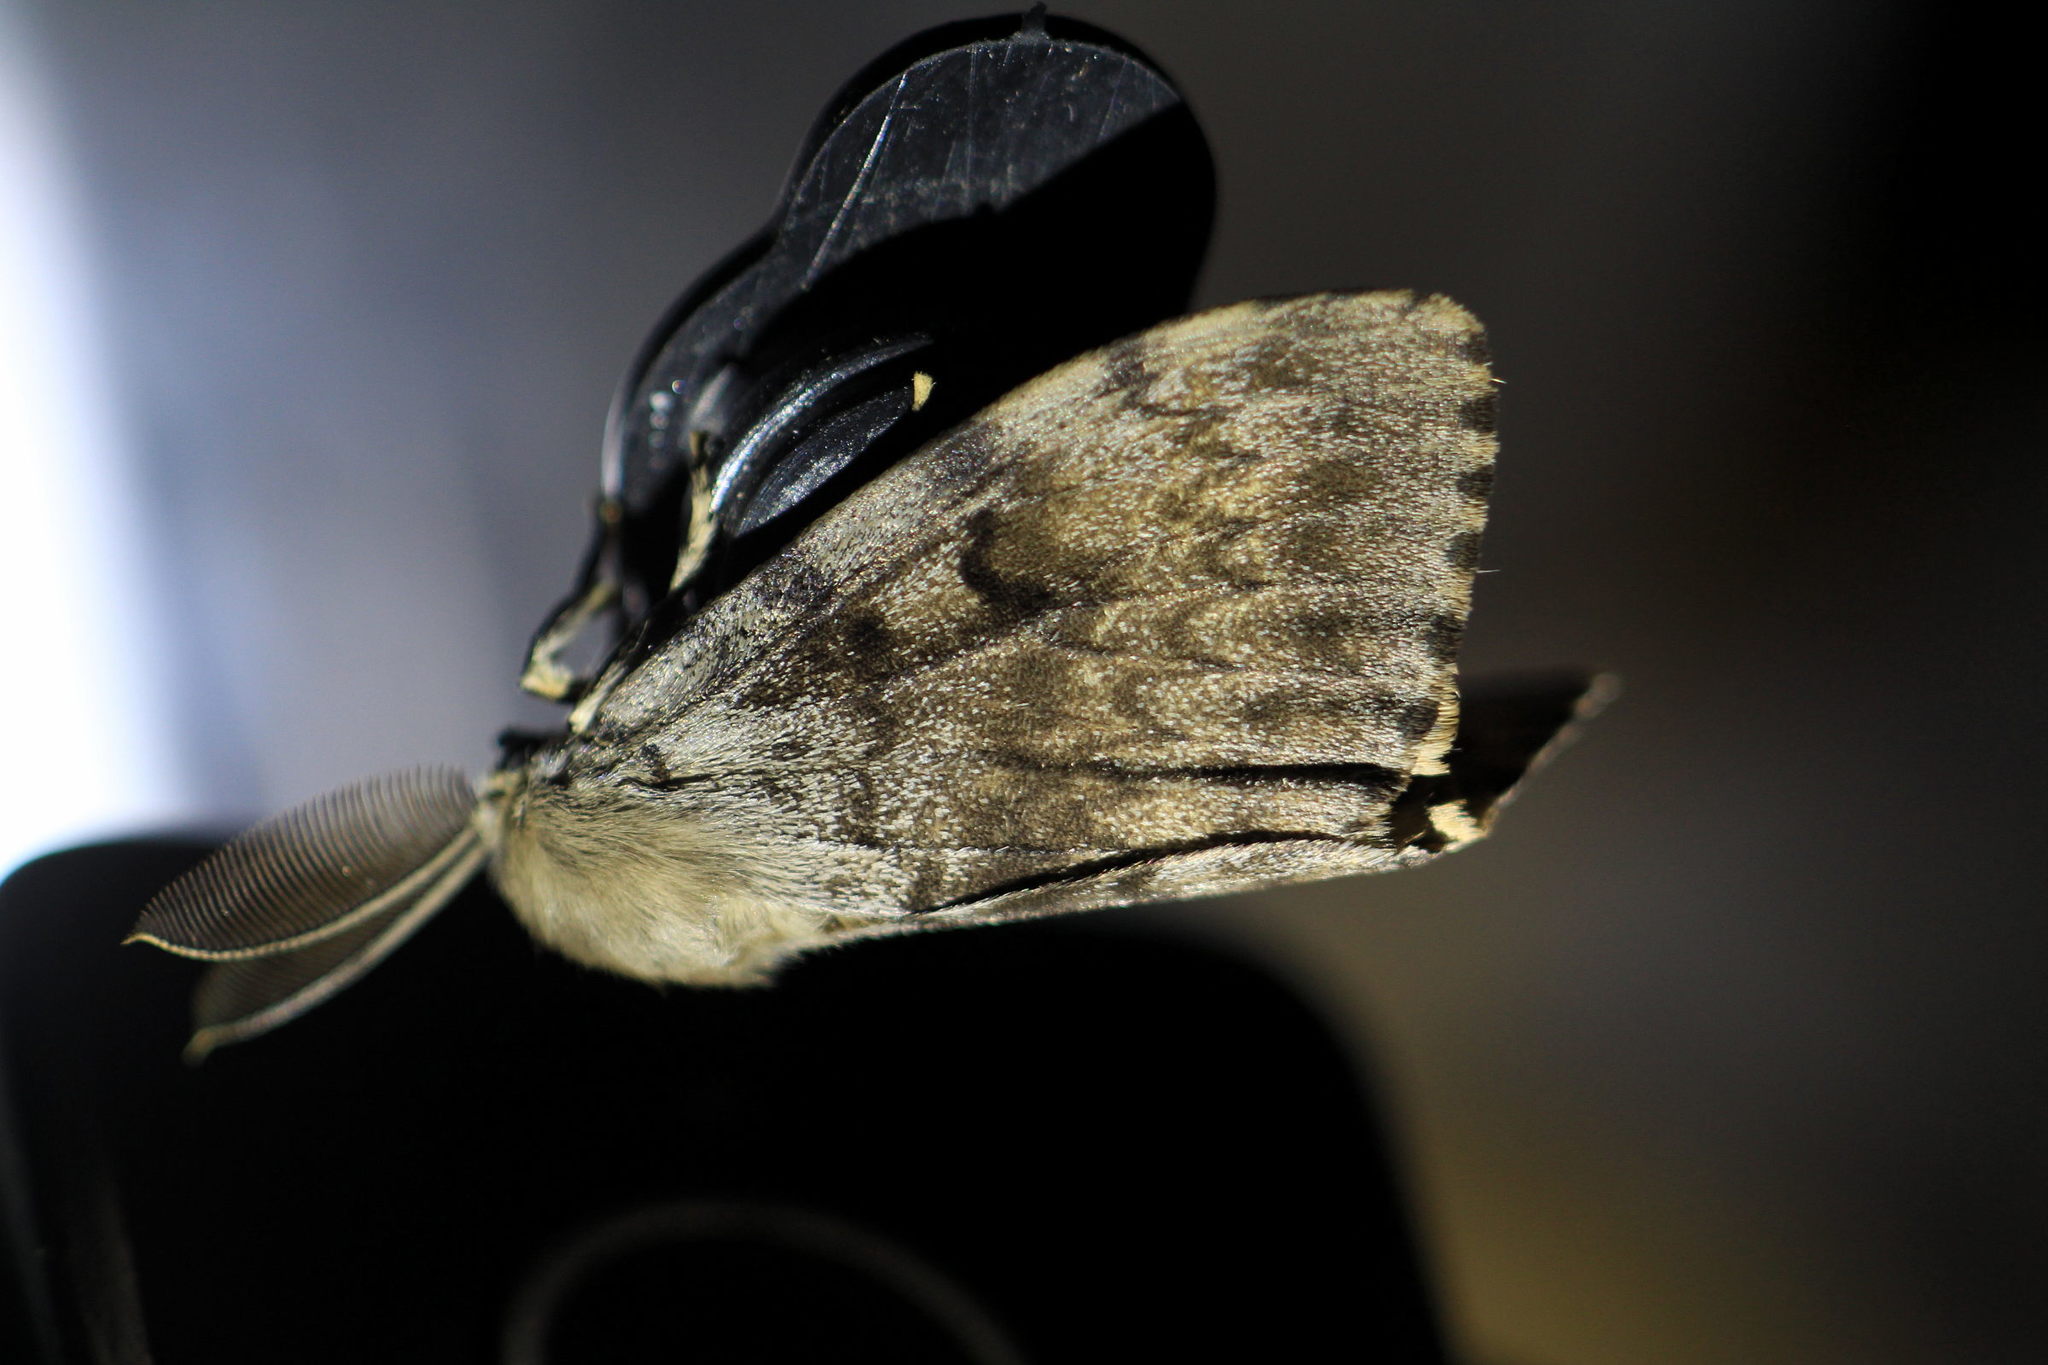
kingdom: Animalia
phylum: Arthropoda
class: Insecta
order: Lepidoptera
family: Erebidae
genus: Lymantria
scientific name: Lymantria dispar
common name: Gypsy moth
